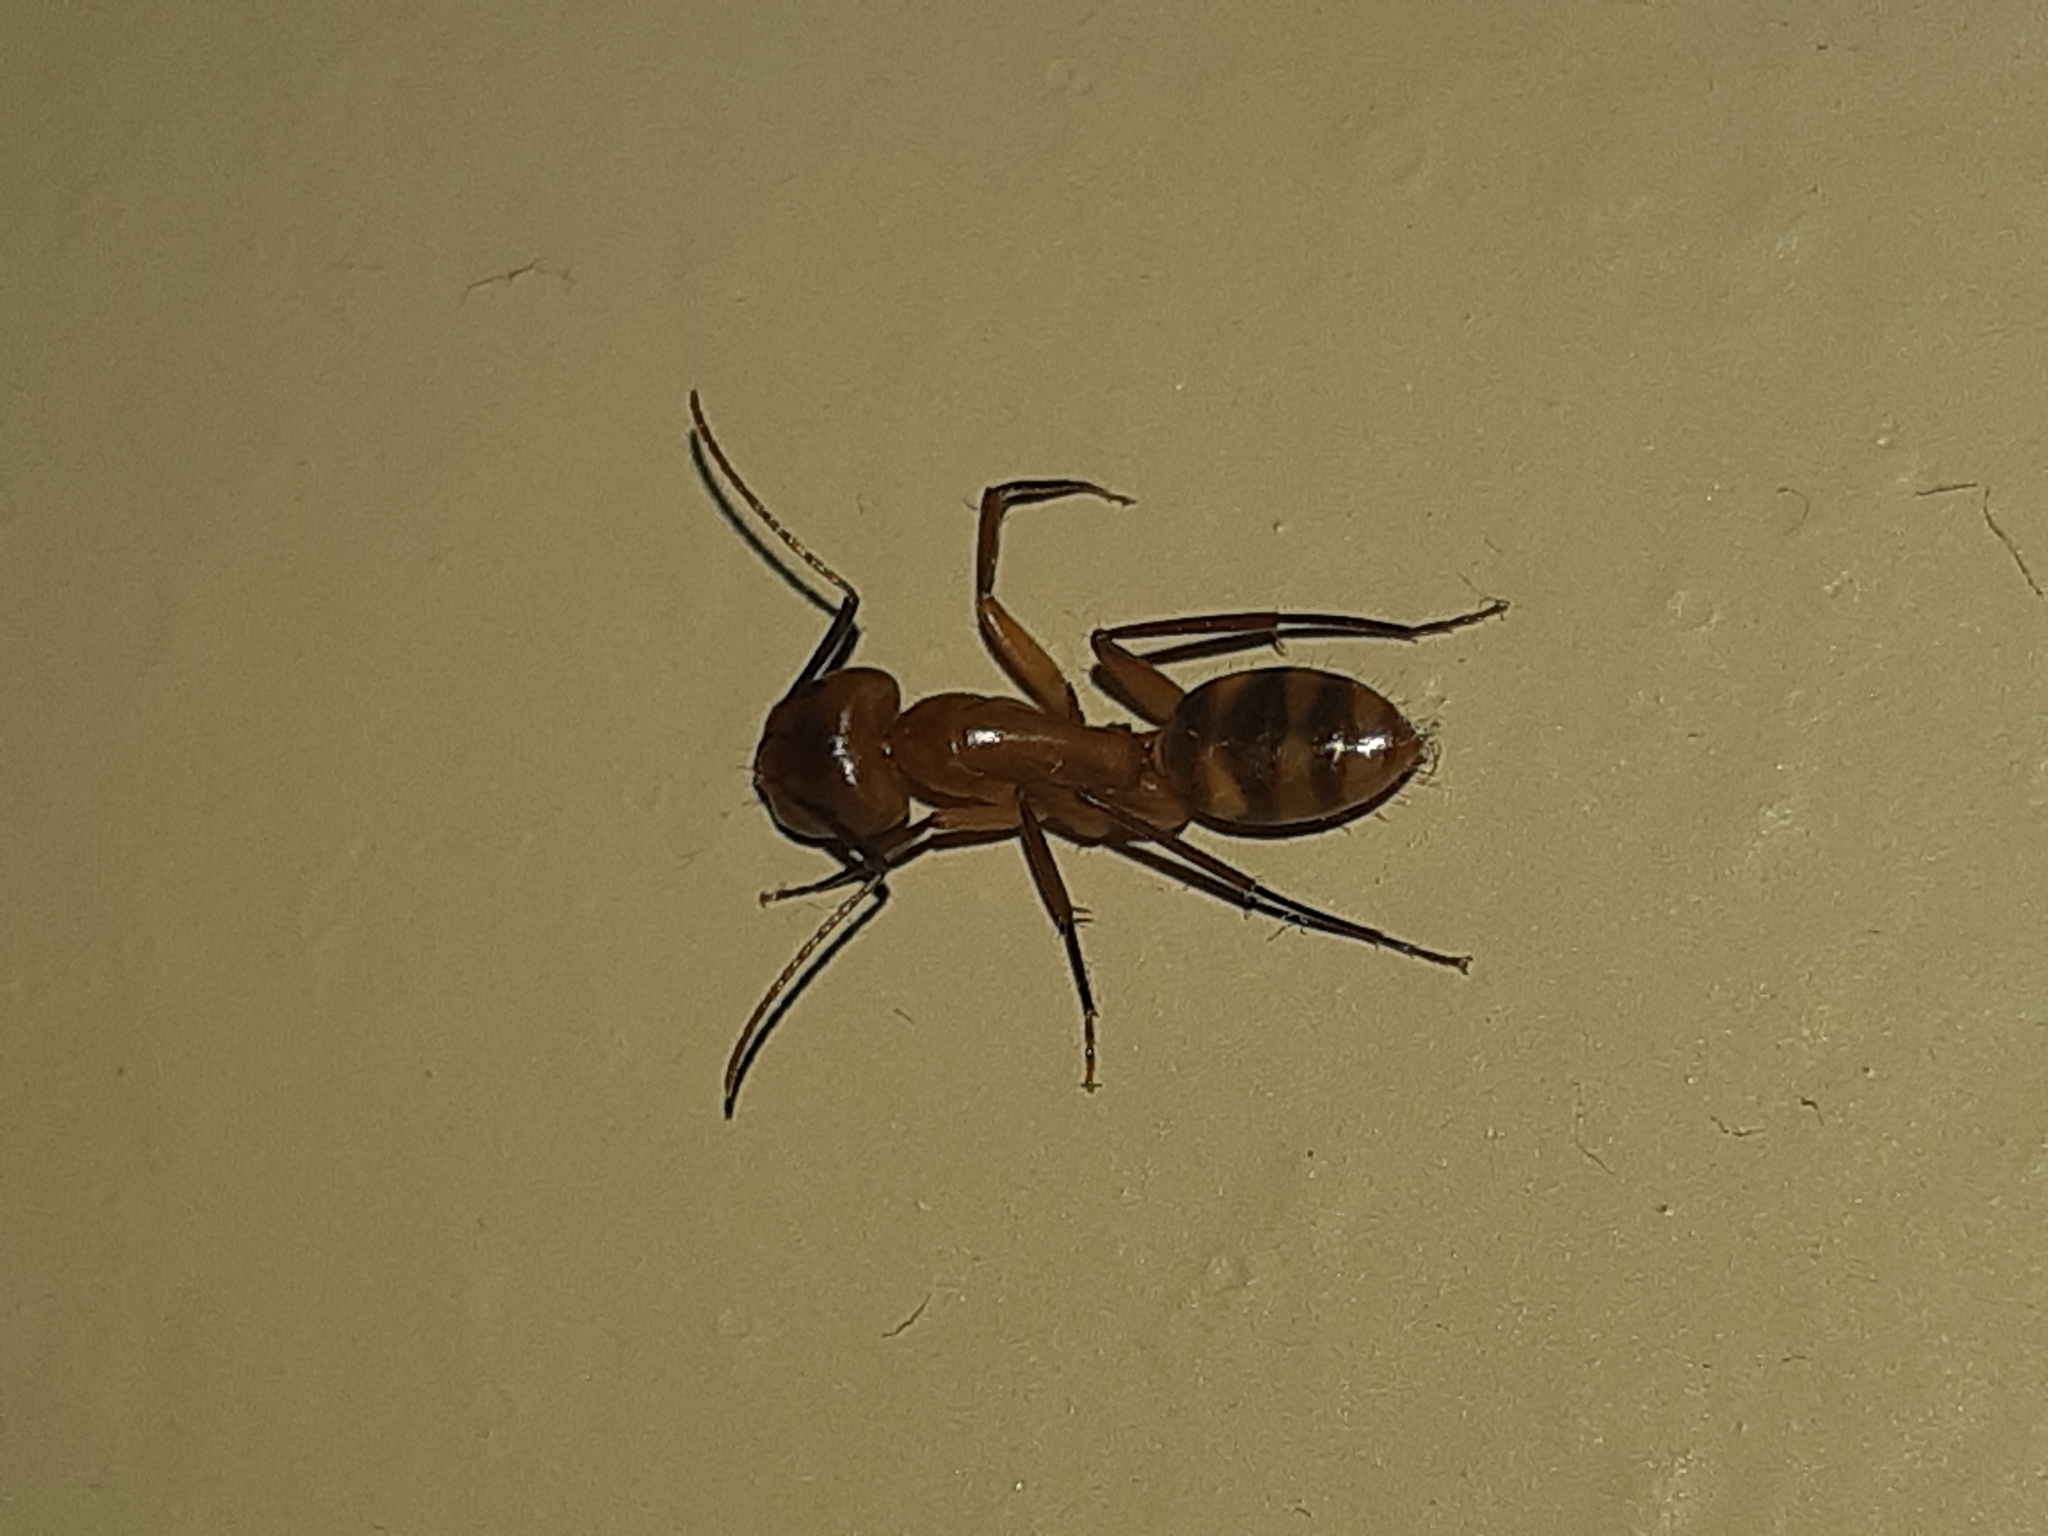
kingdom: Animalia
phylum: Arthropoda
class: Insecta
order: Hymenoptera
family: Formicidae
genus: Camponotus
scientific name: Camponotus
